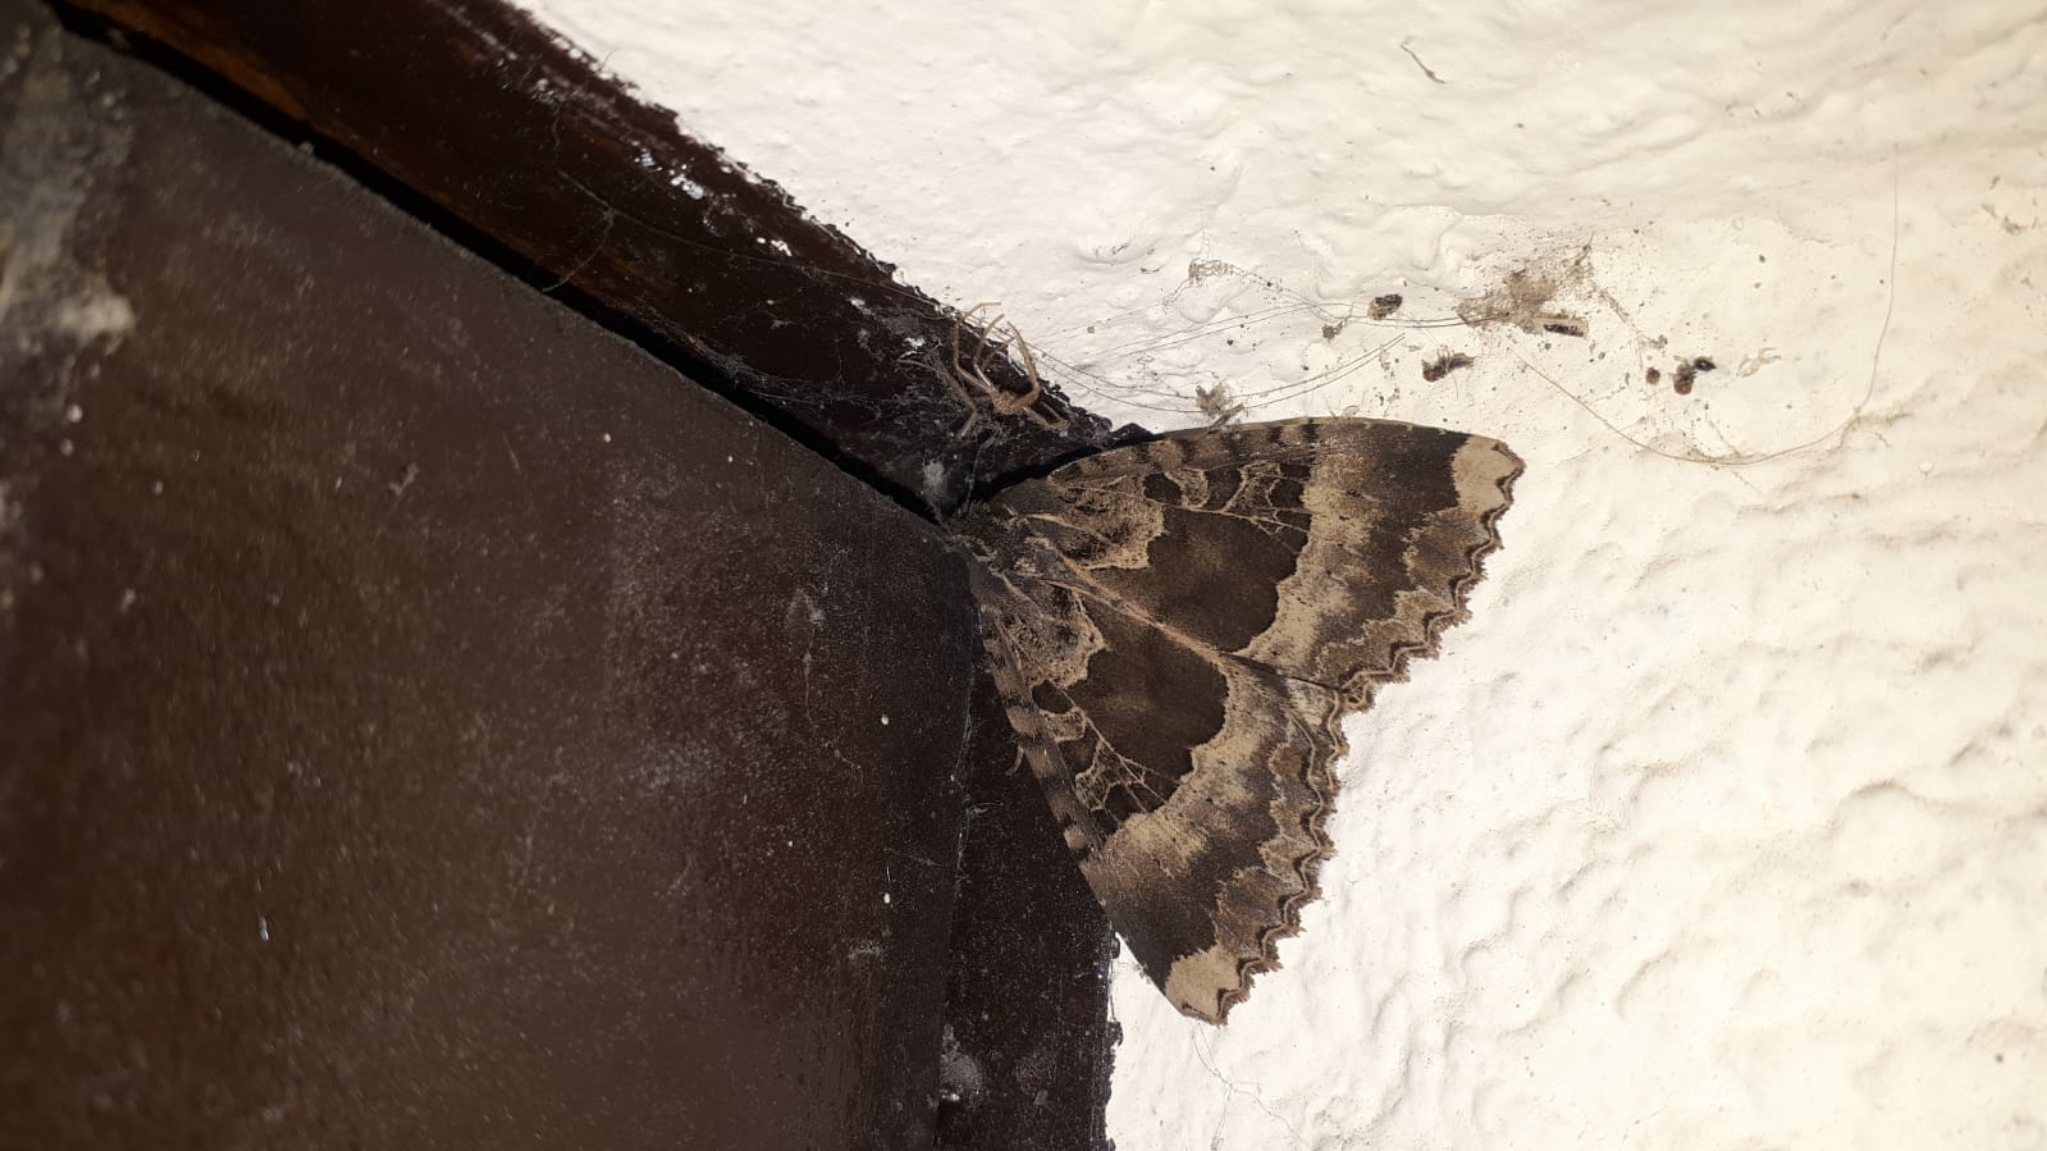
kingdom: Animalia
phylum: Arthropoda
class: Insecta
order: Lepidoptera
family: Noctuidae
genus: Mormo
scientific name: Mormo maura
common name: Old lady
